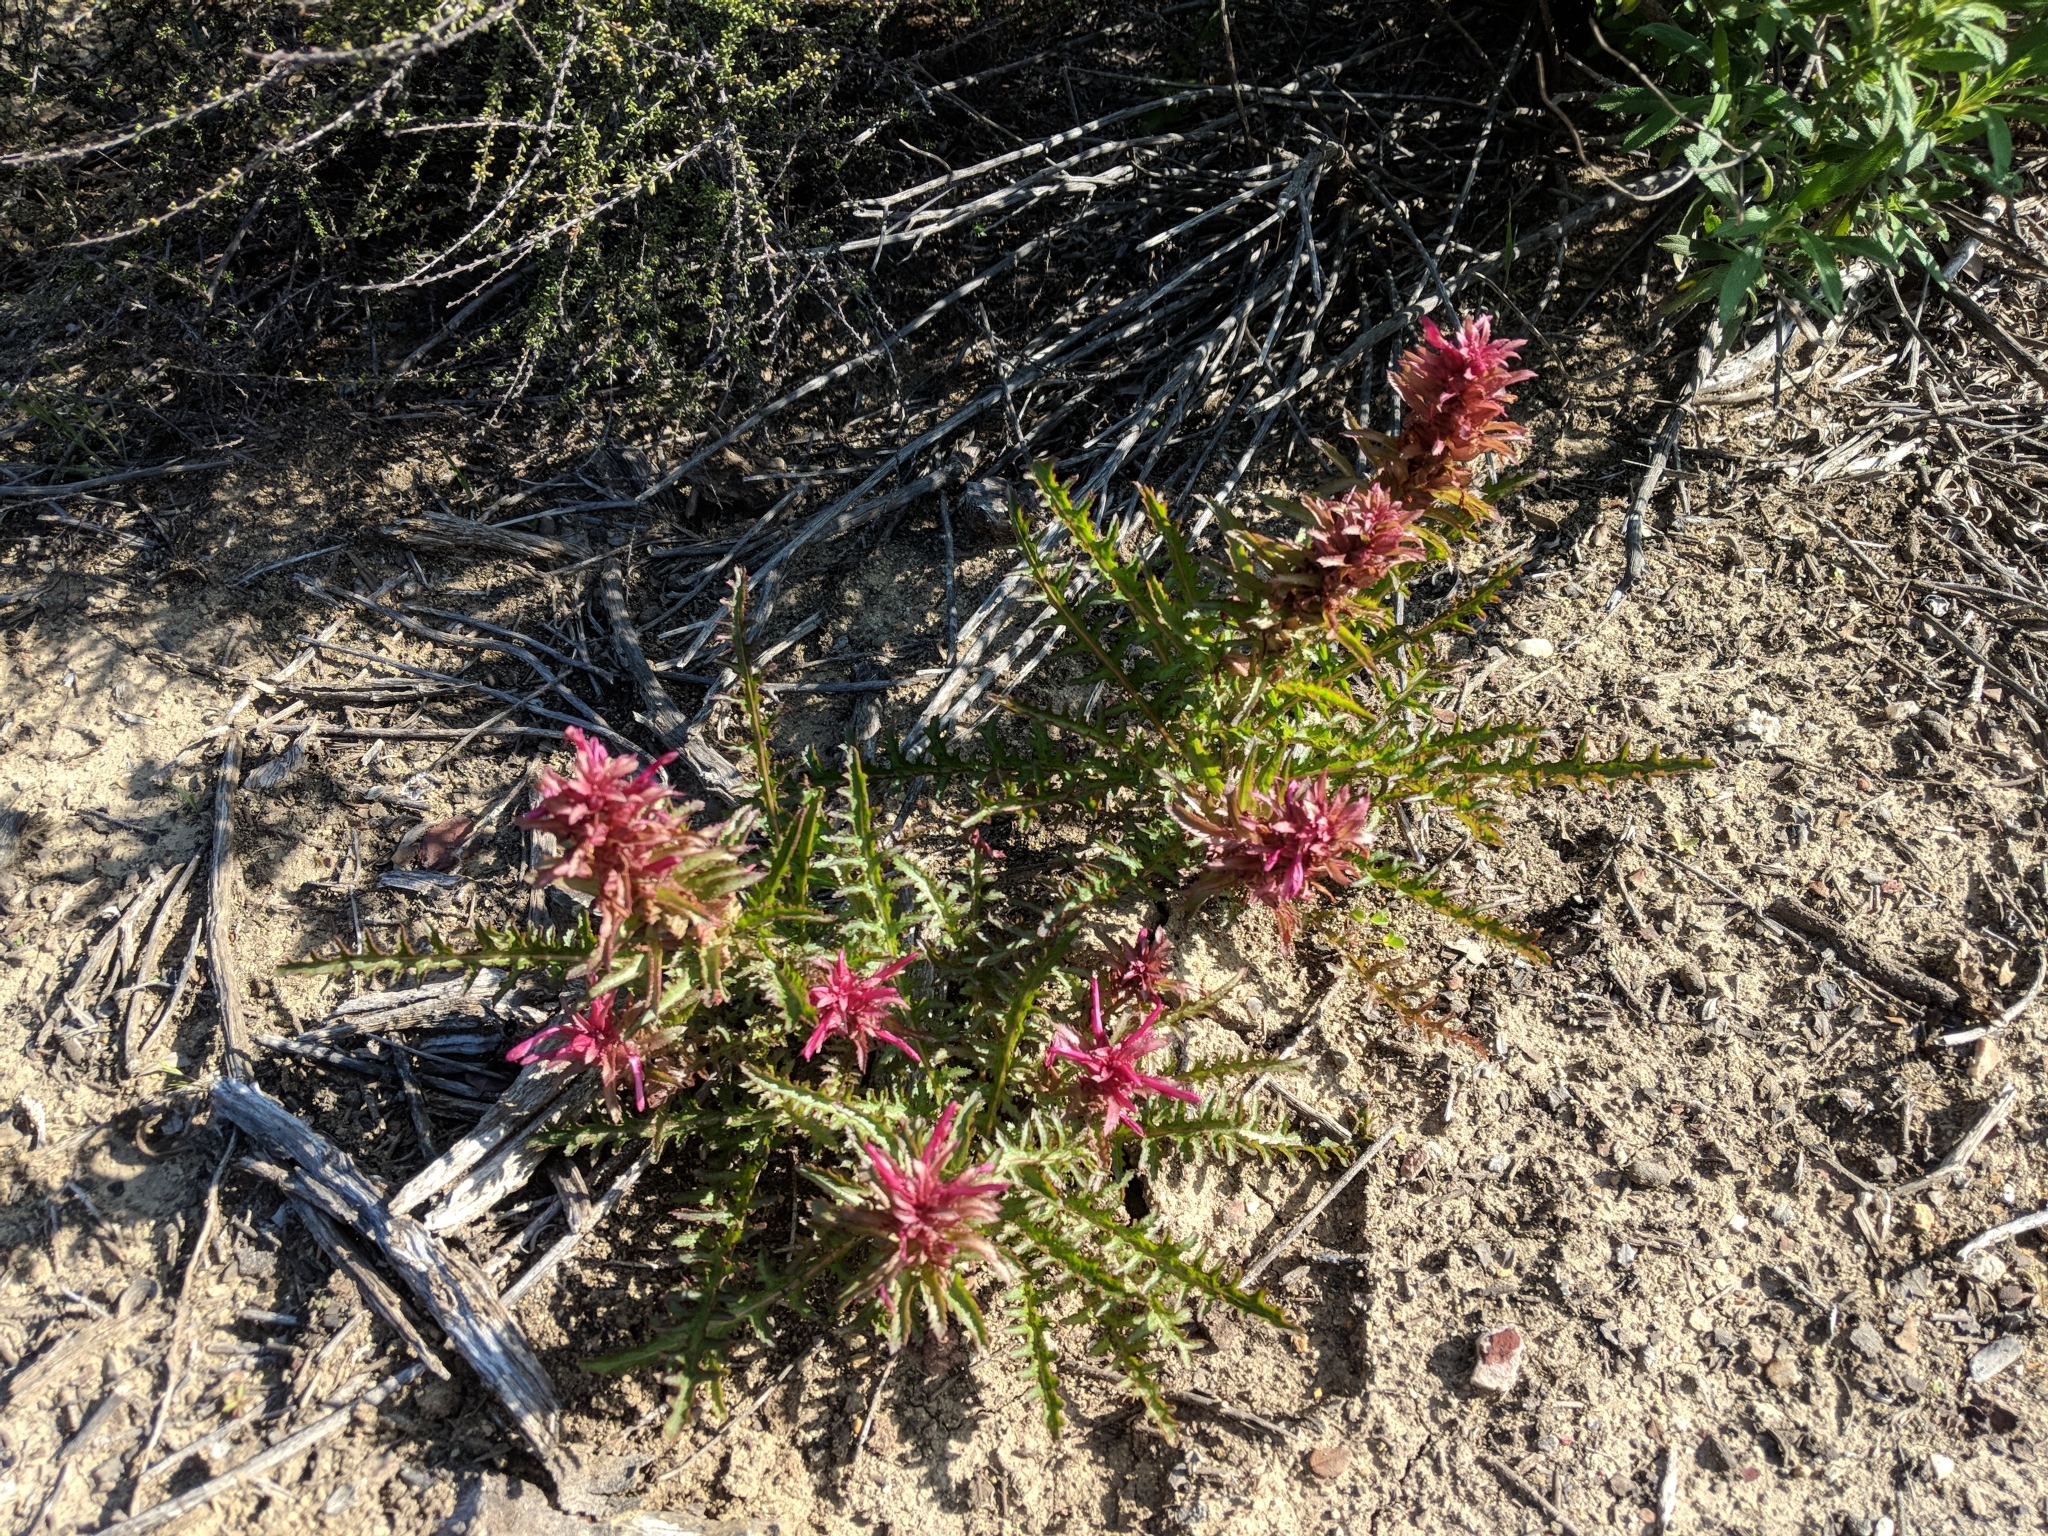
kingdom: Plantae
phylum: Tracheophyta
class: Magnoliopsida
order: Lamiales
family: Orobanchaceae
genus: Pedicularis
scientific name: Pedicularis densiflora
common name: Indian warrior
